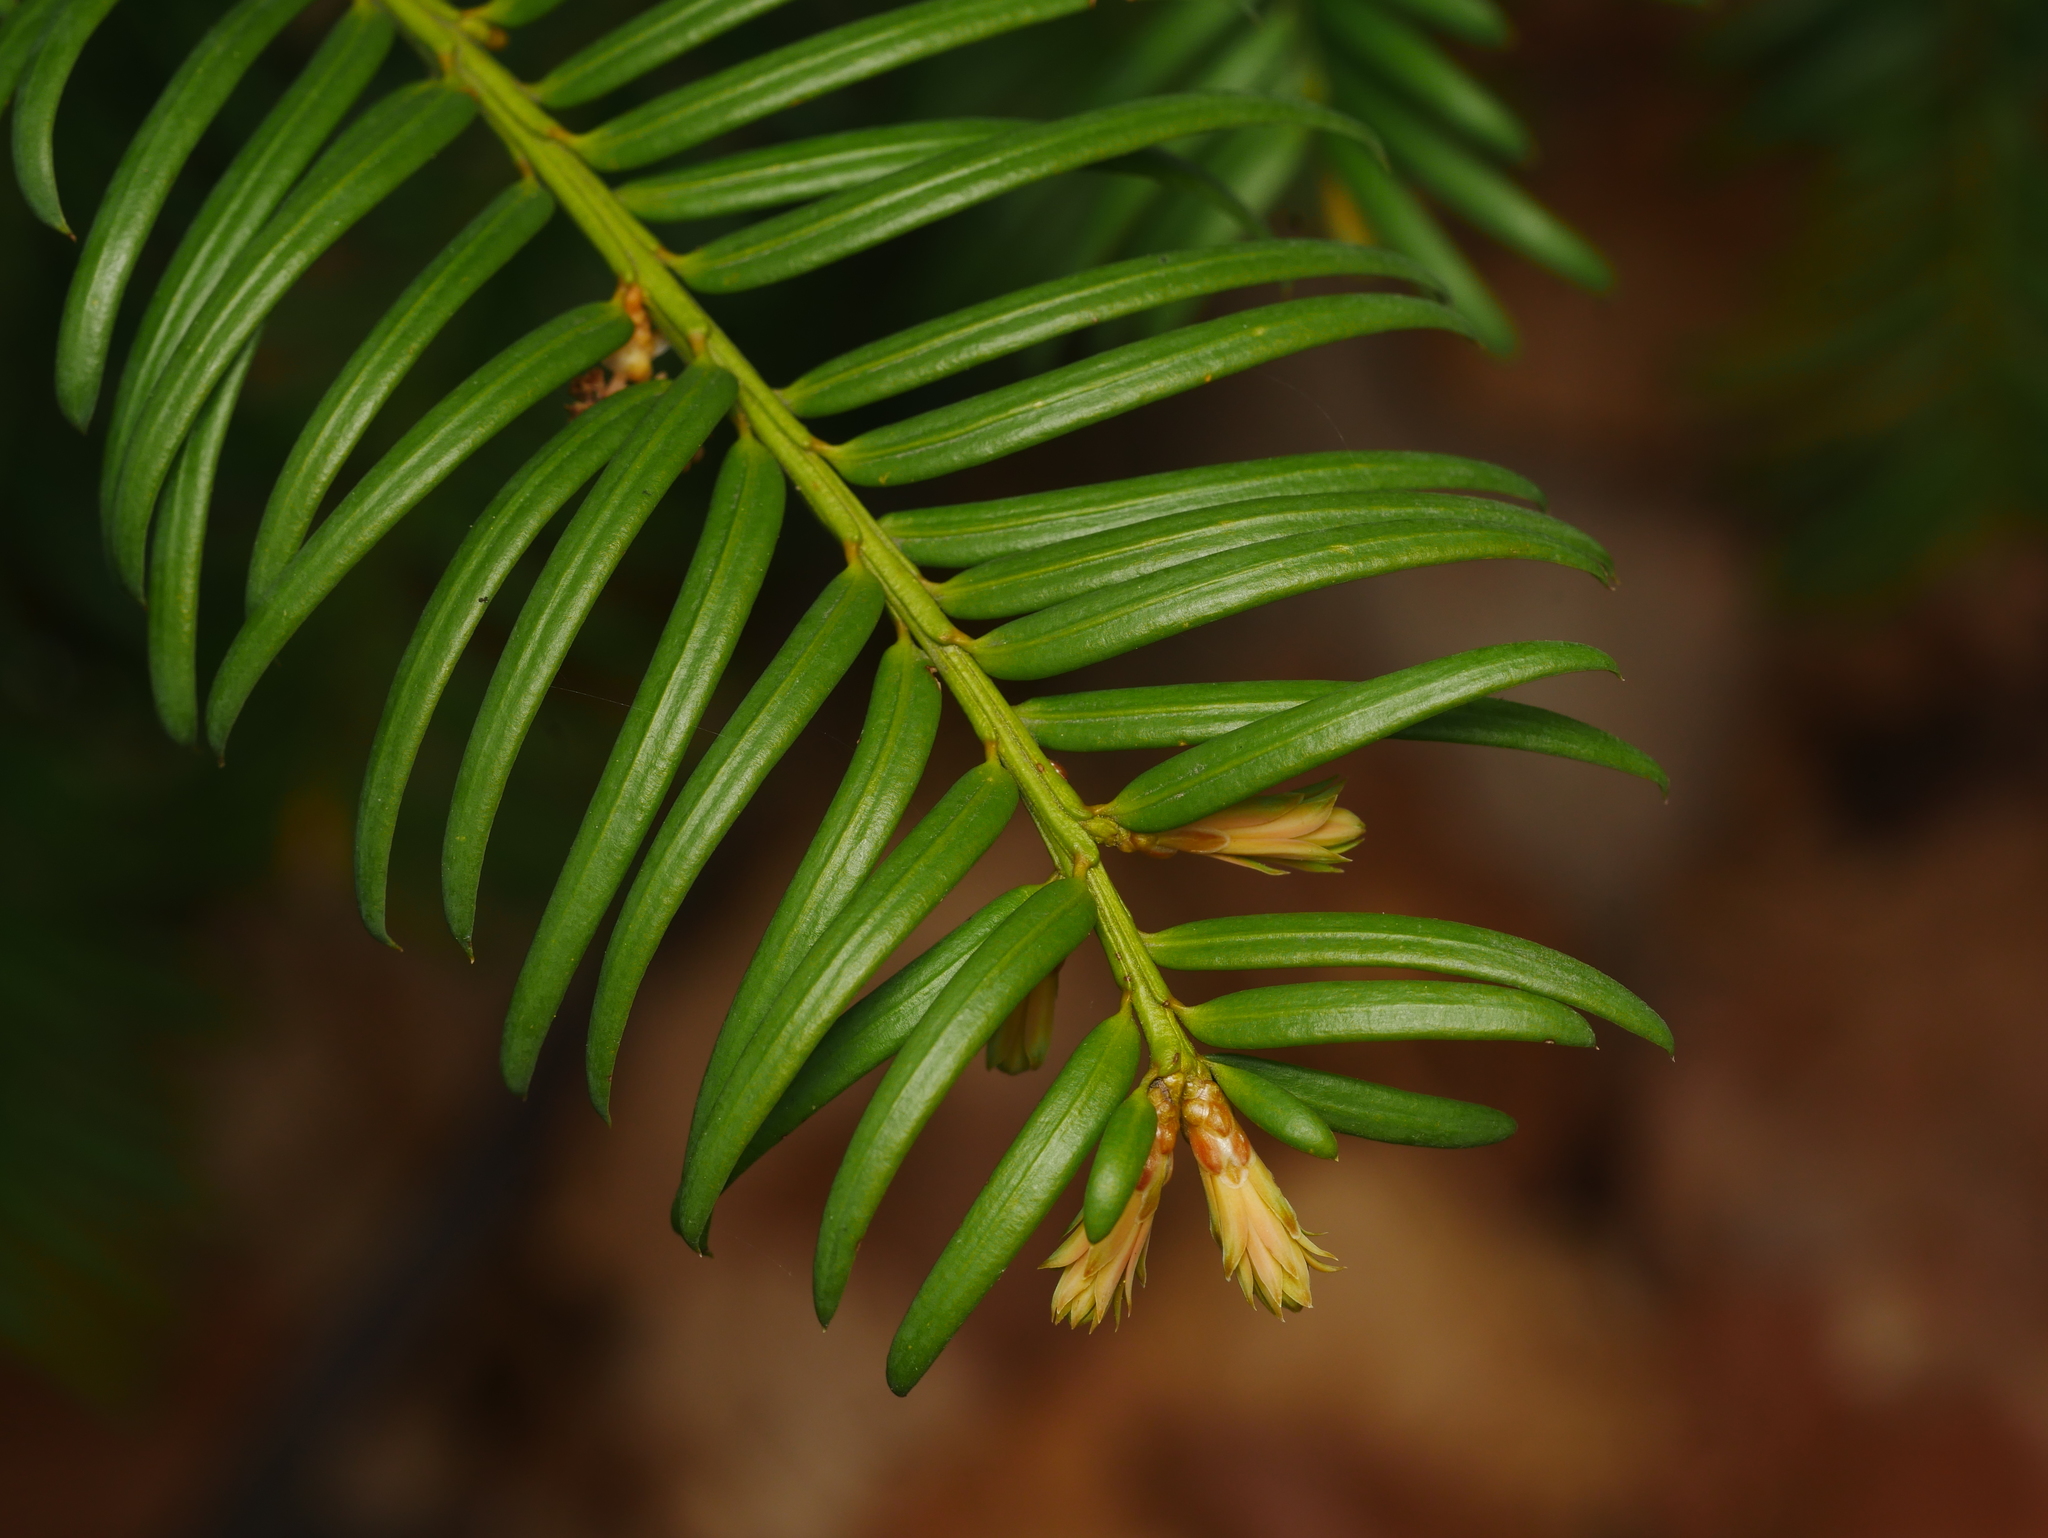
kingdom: Plantae
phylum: Tracheophyta
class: Pinopsida
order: Pinales
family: Taxaceae
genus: Taxus
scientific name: Taxus baccata
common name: Yew
